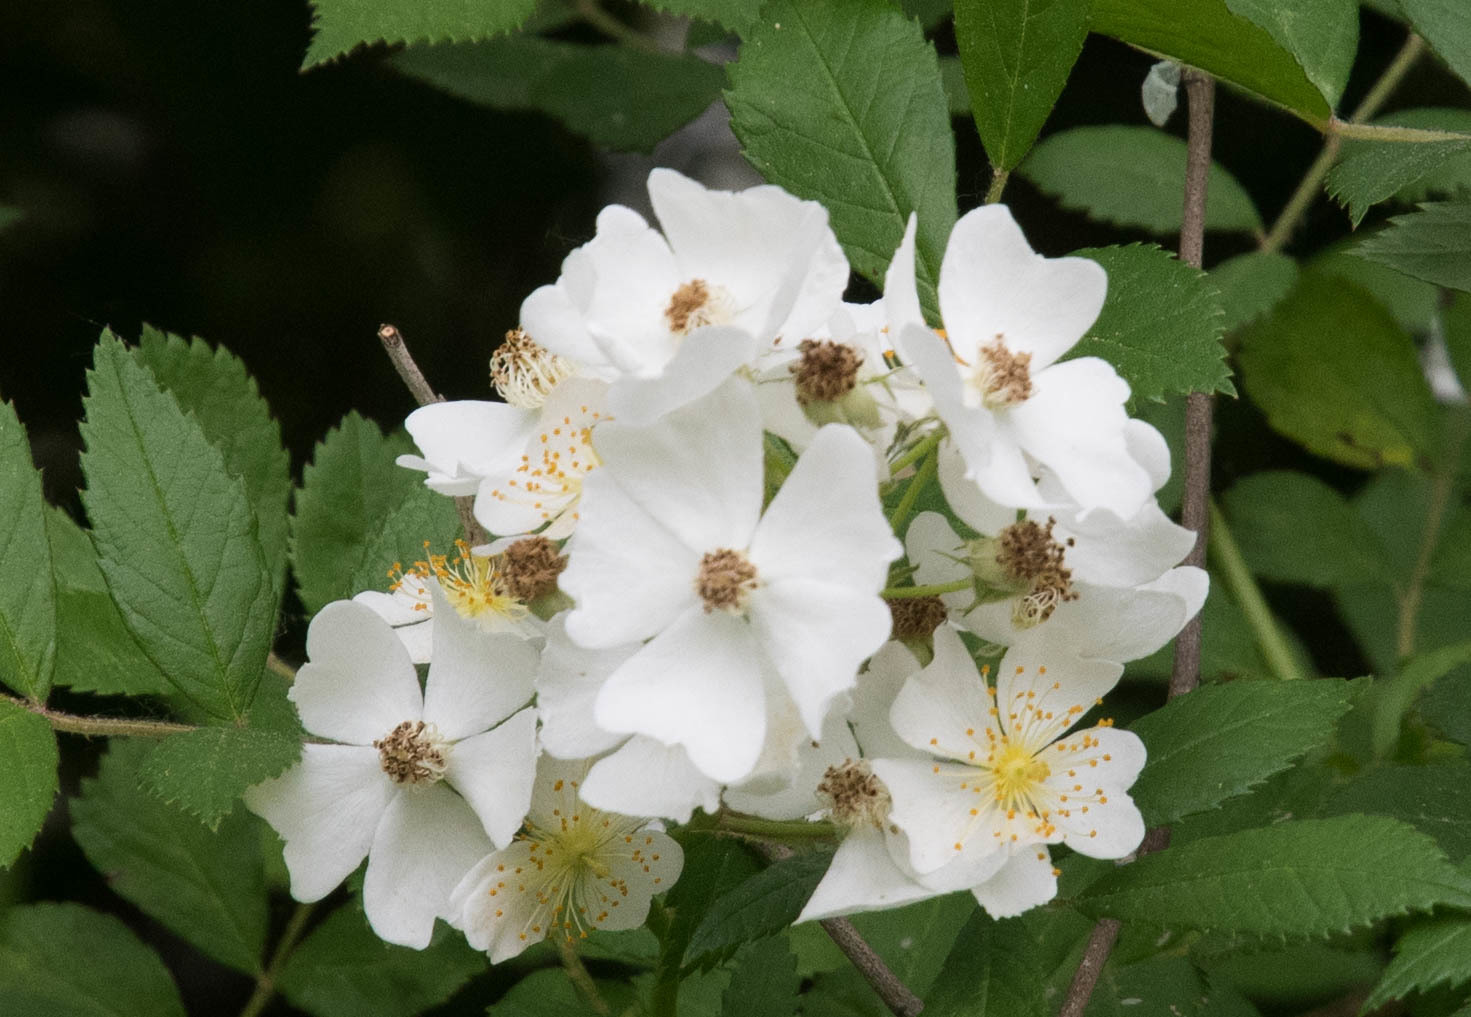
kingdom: Plantae
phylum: Tracheophyta
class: Magnoliopsida
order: Rosales
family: Rosaceae
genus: Rosa
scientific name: Rosa multiflora
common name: Multiflora rose
